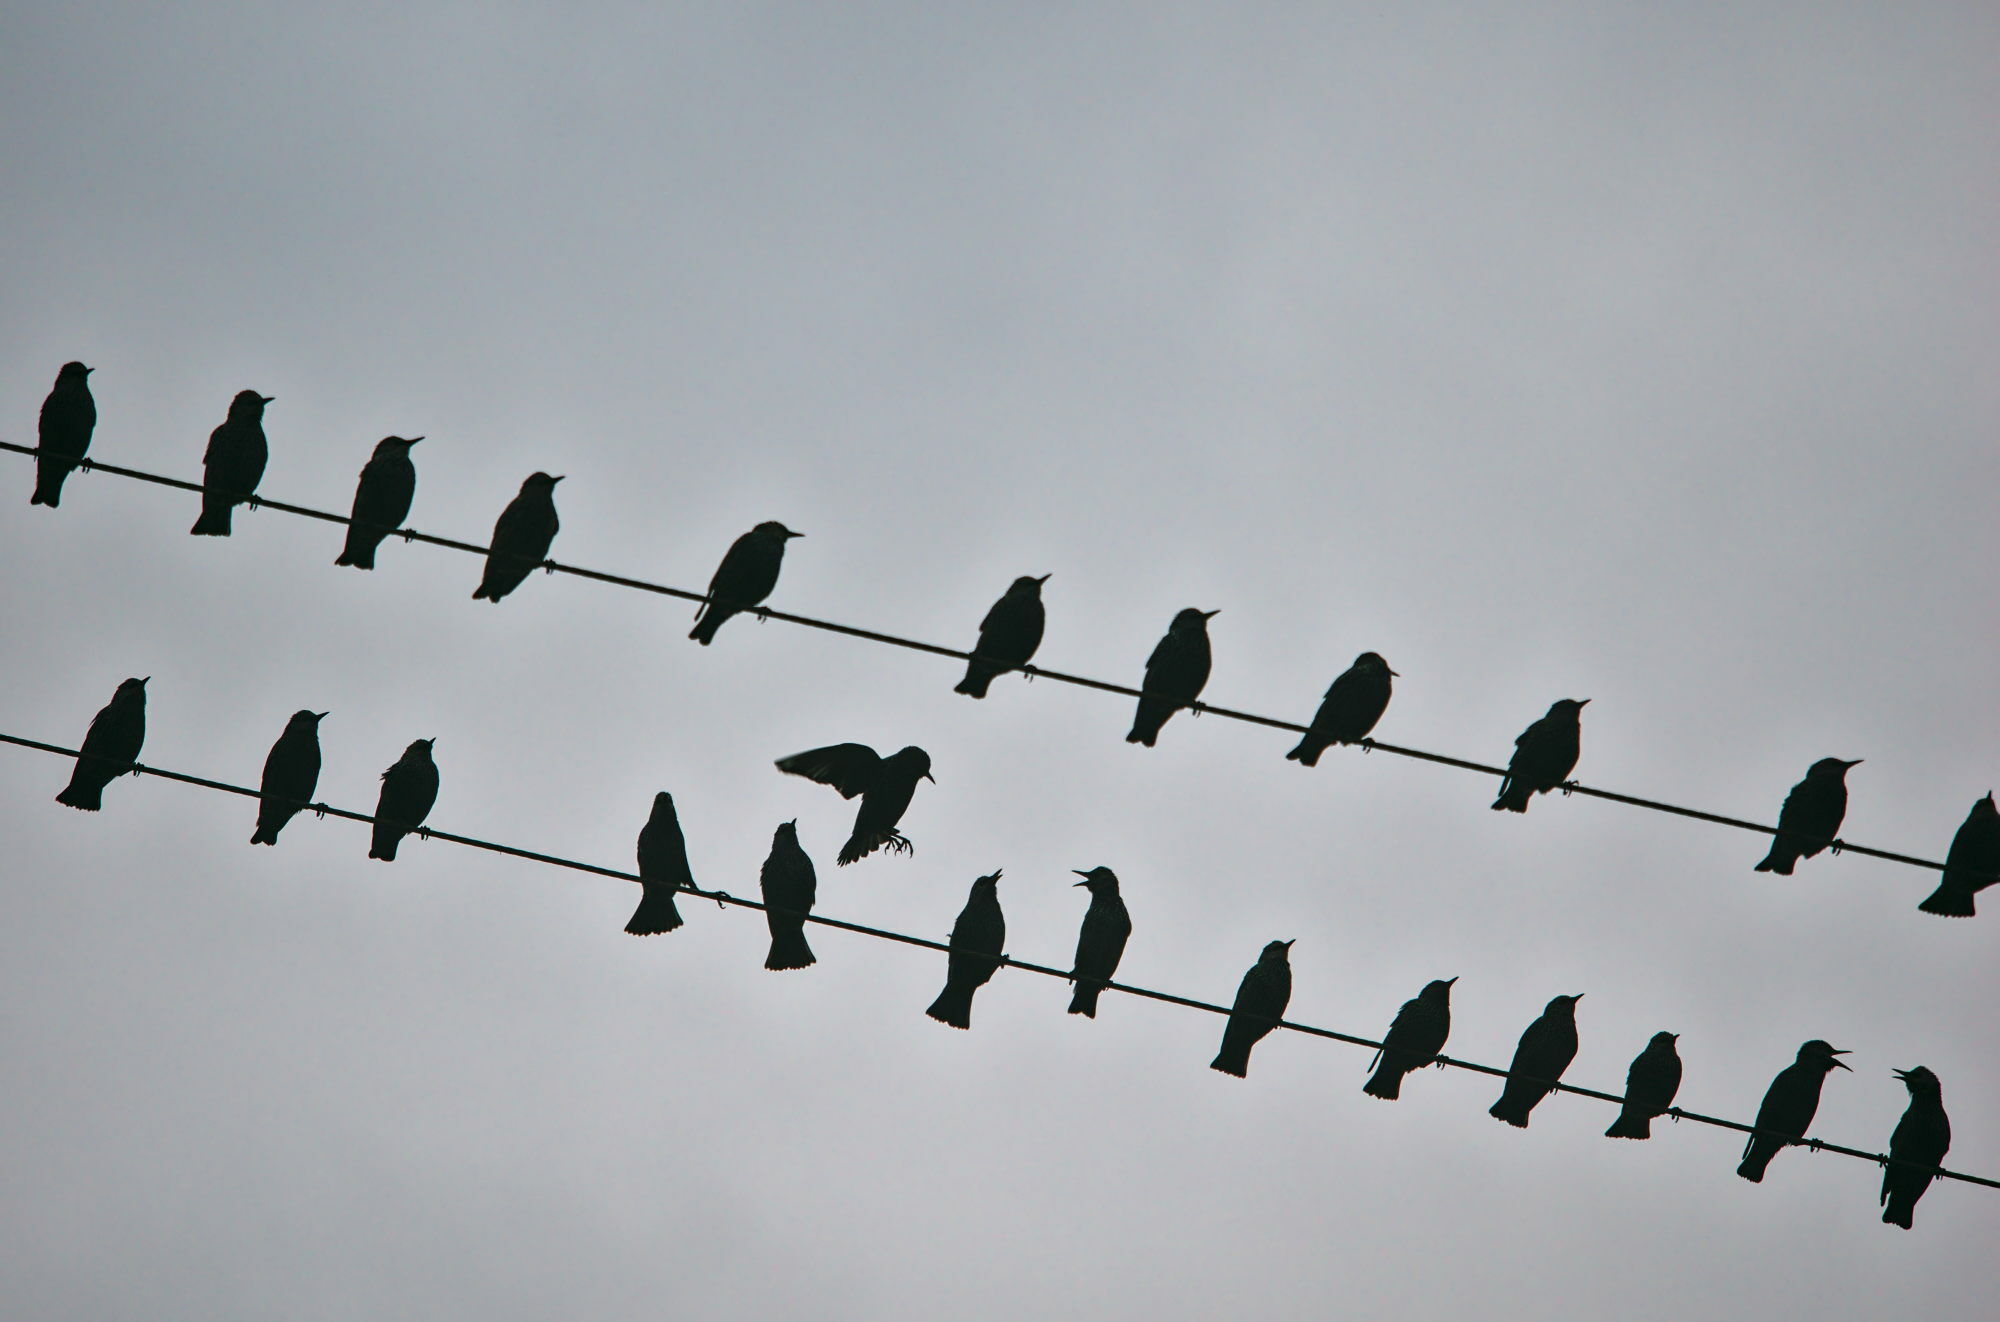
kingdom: Animalia
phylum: Chordata
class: Aves
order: Passeriformes
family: Sturnidae
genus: Sturnus
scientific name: Sturnus vulgaris
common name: Common starling
